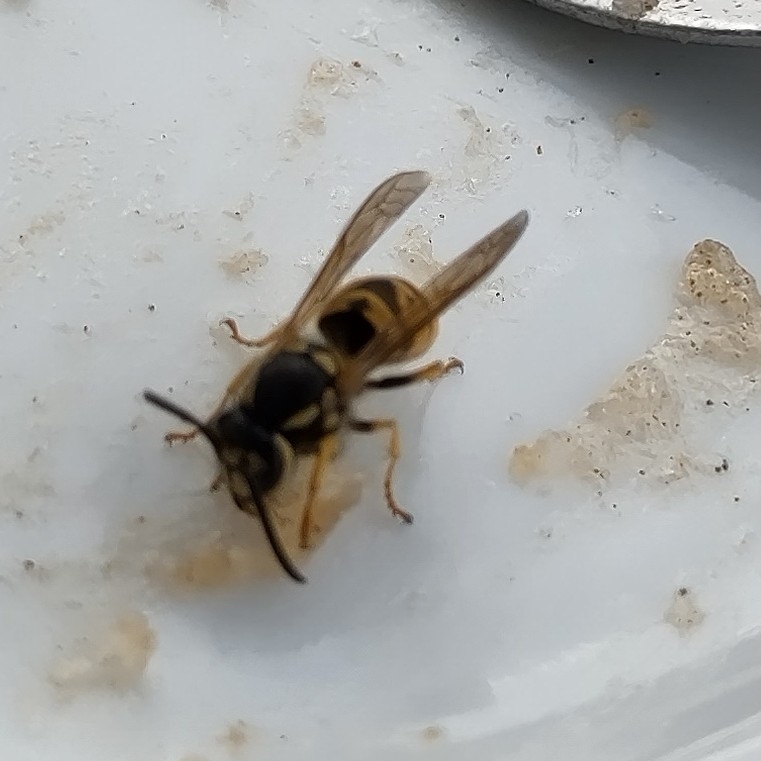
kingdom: Animalia
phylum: Arthropoda
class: Insecta
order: Hymenoptera
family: Vespidae
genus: Vespula
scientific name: Vespula germanica
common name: German wasp
